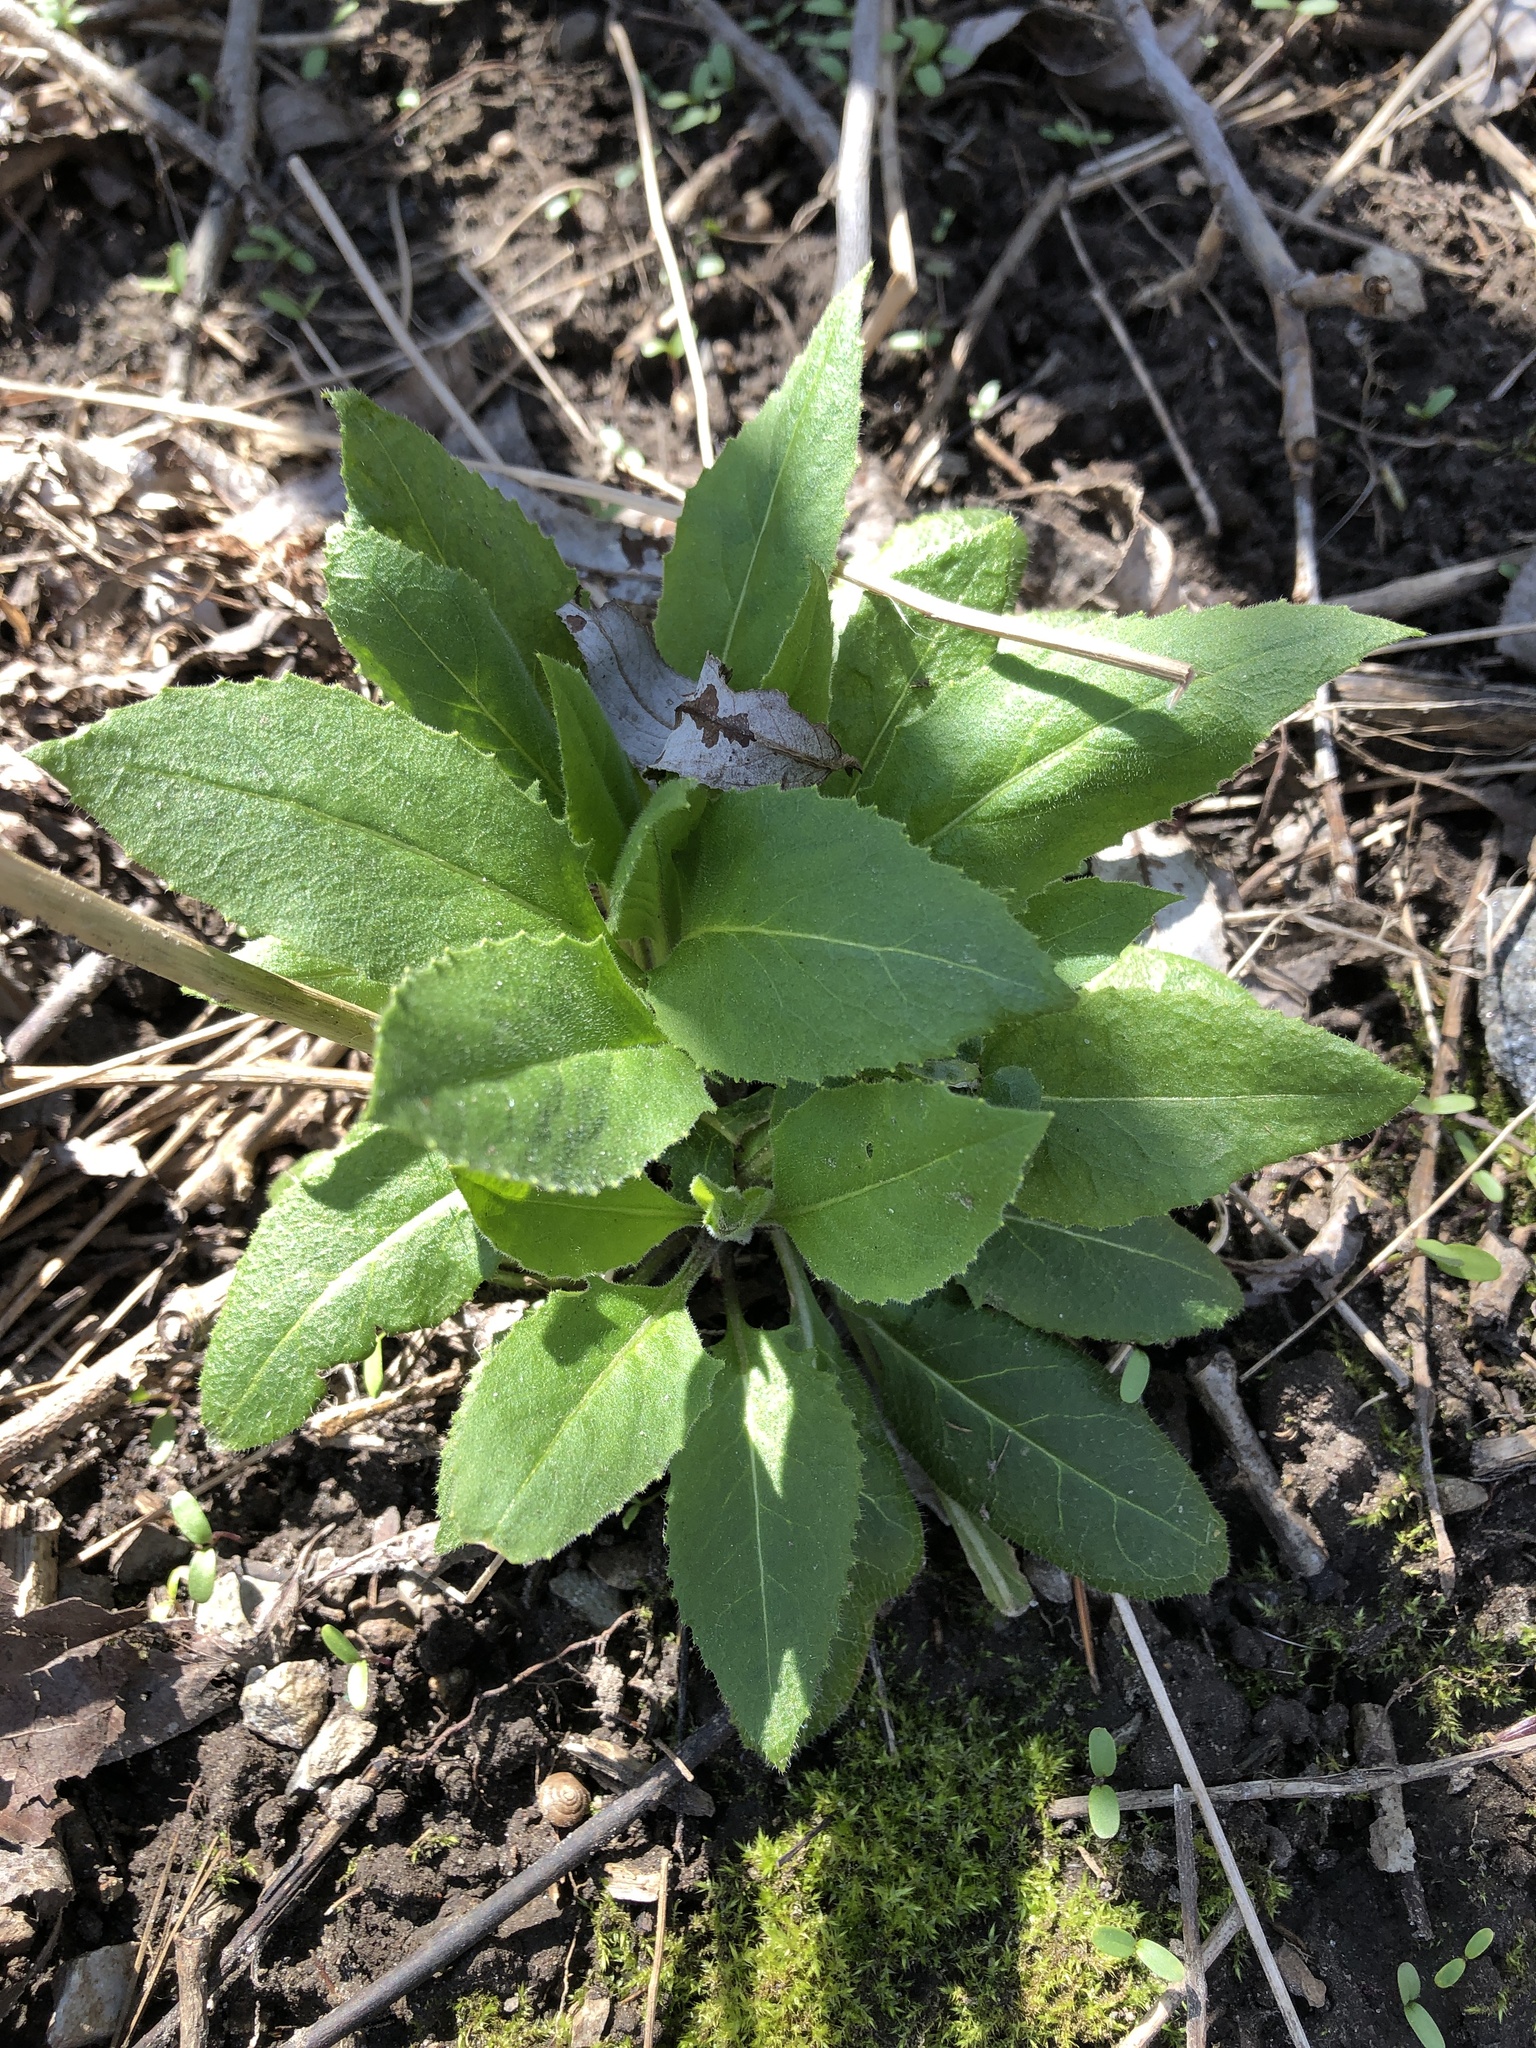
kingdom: Plantae
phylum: Tracheophyta
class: Magnoliopsida
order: Brassicales
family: Brassicaceae
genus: Hesperis
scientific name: Hesperis matronalis
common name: Dame's-violet
